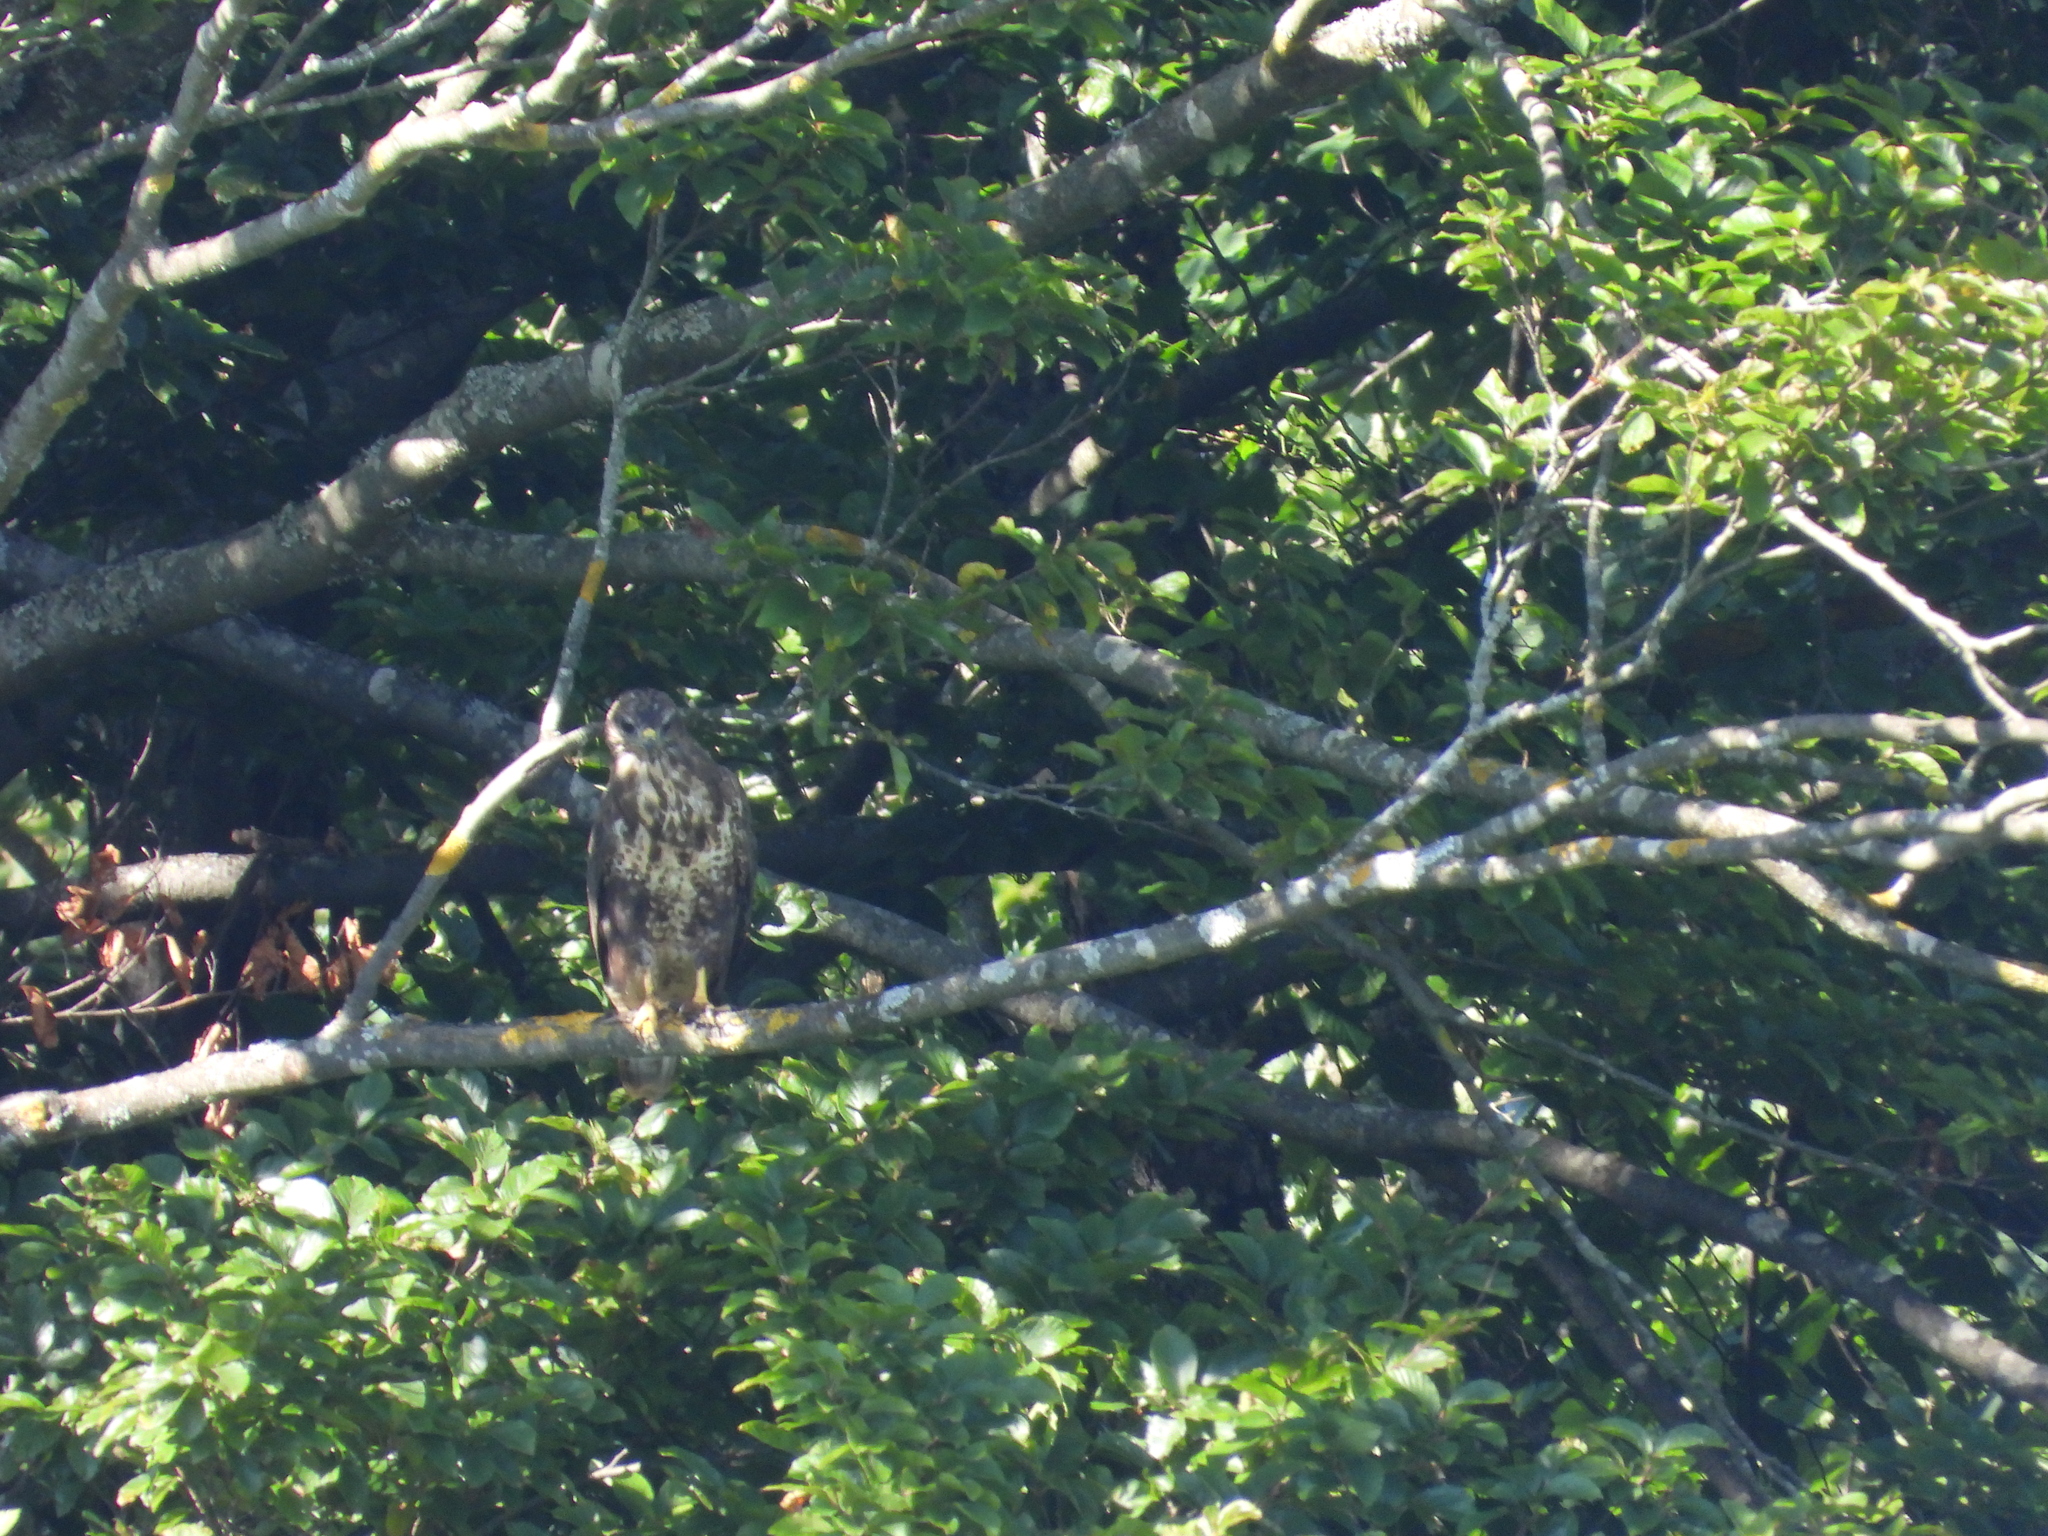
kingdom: Animalia
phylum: Chordata
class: Aves
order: Accipitriformes
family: Accipitridae
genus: Buteo
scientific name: Buteo buteo
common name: Common buzzard
